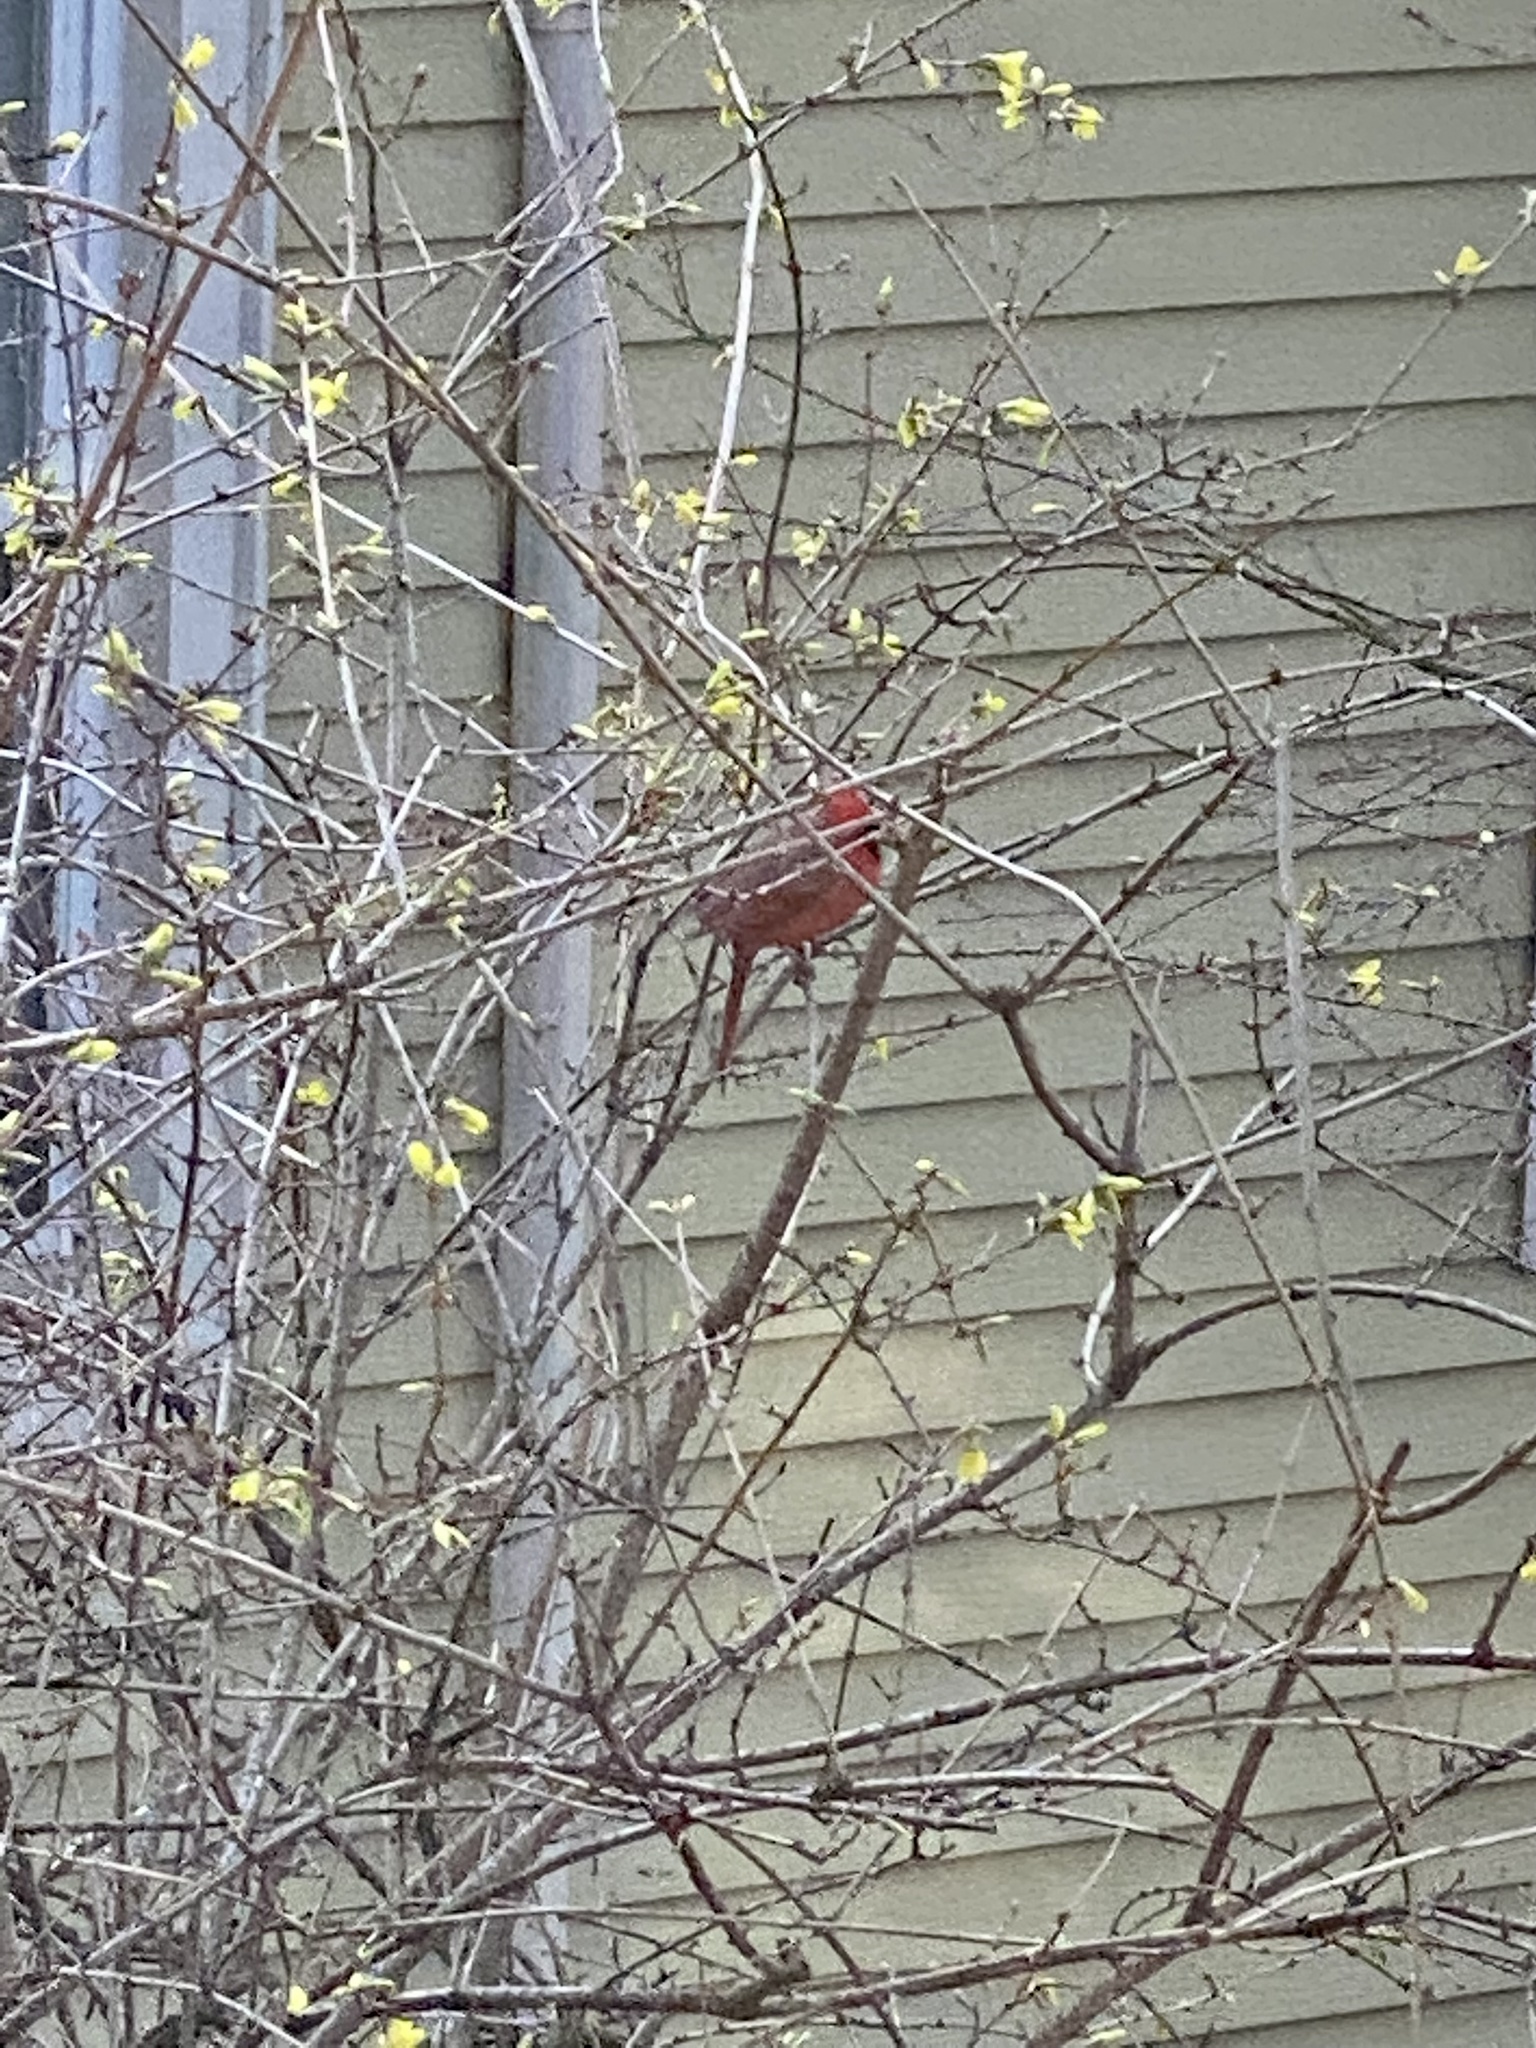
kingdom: Animalia
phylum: Chordata
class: Aves
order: Passeriformes
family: Cardinalidae
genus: Cardinalis
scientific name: Cardinalis cardinalis
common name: Northern cardinal
